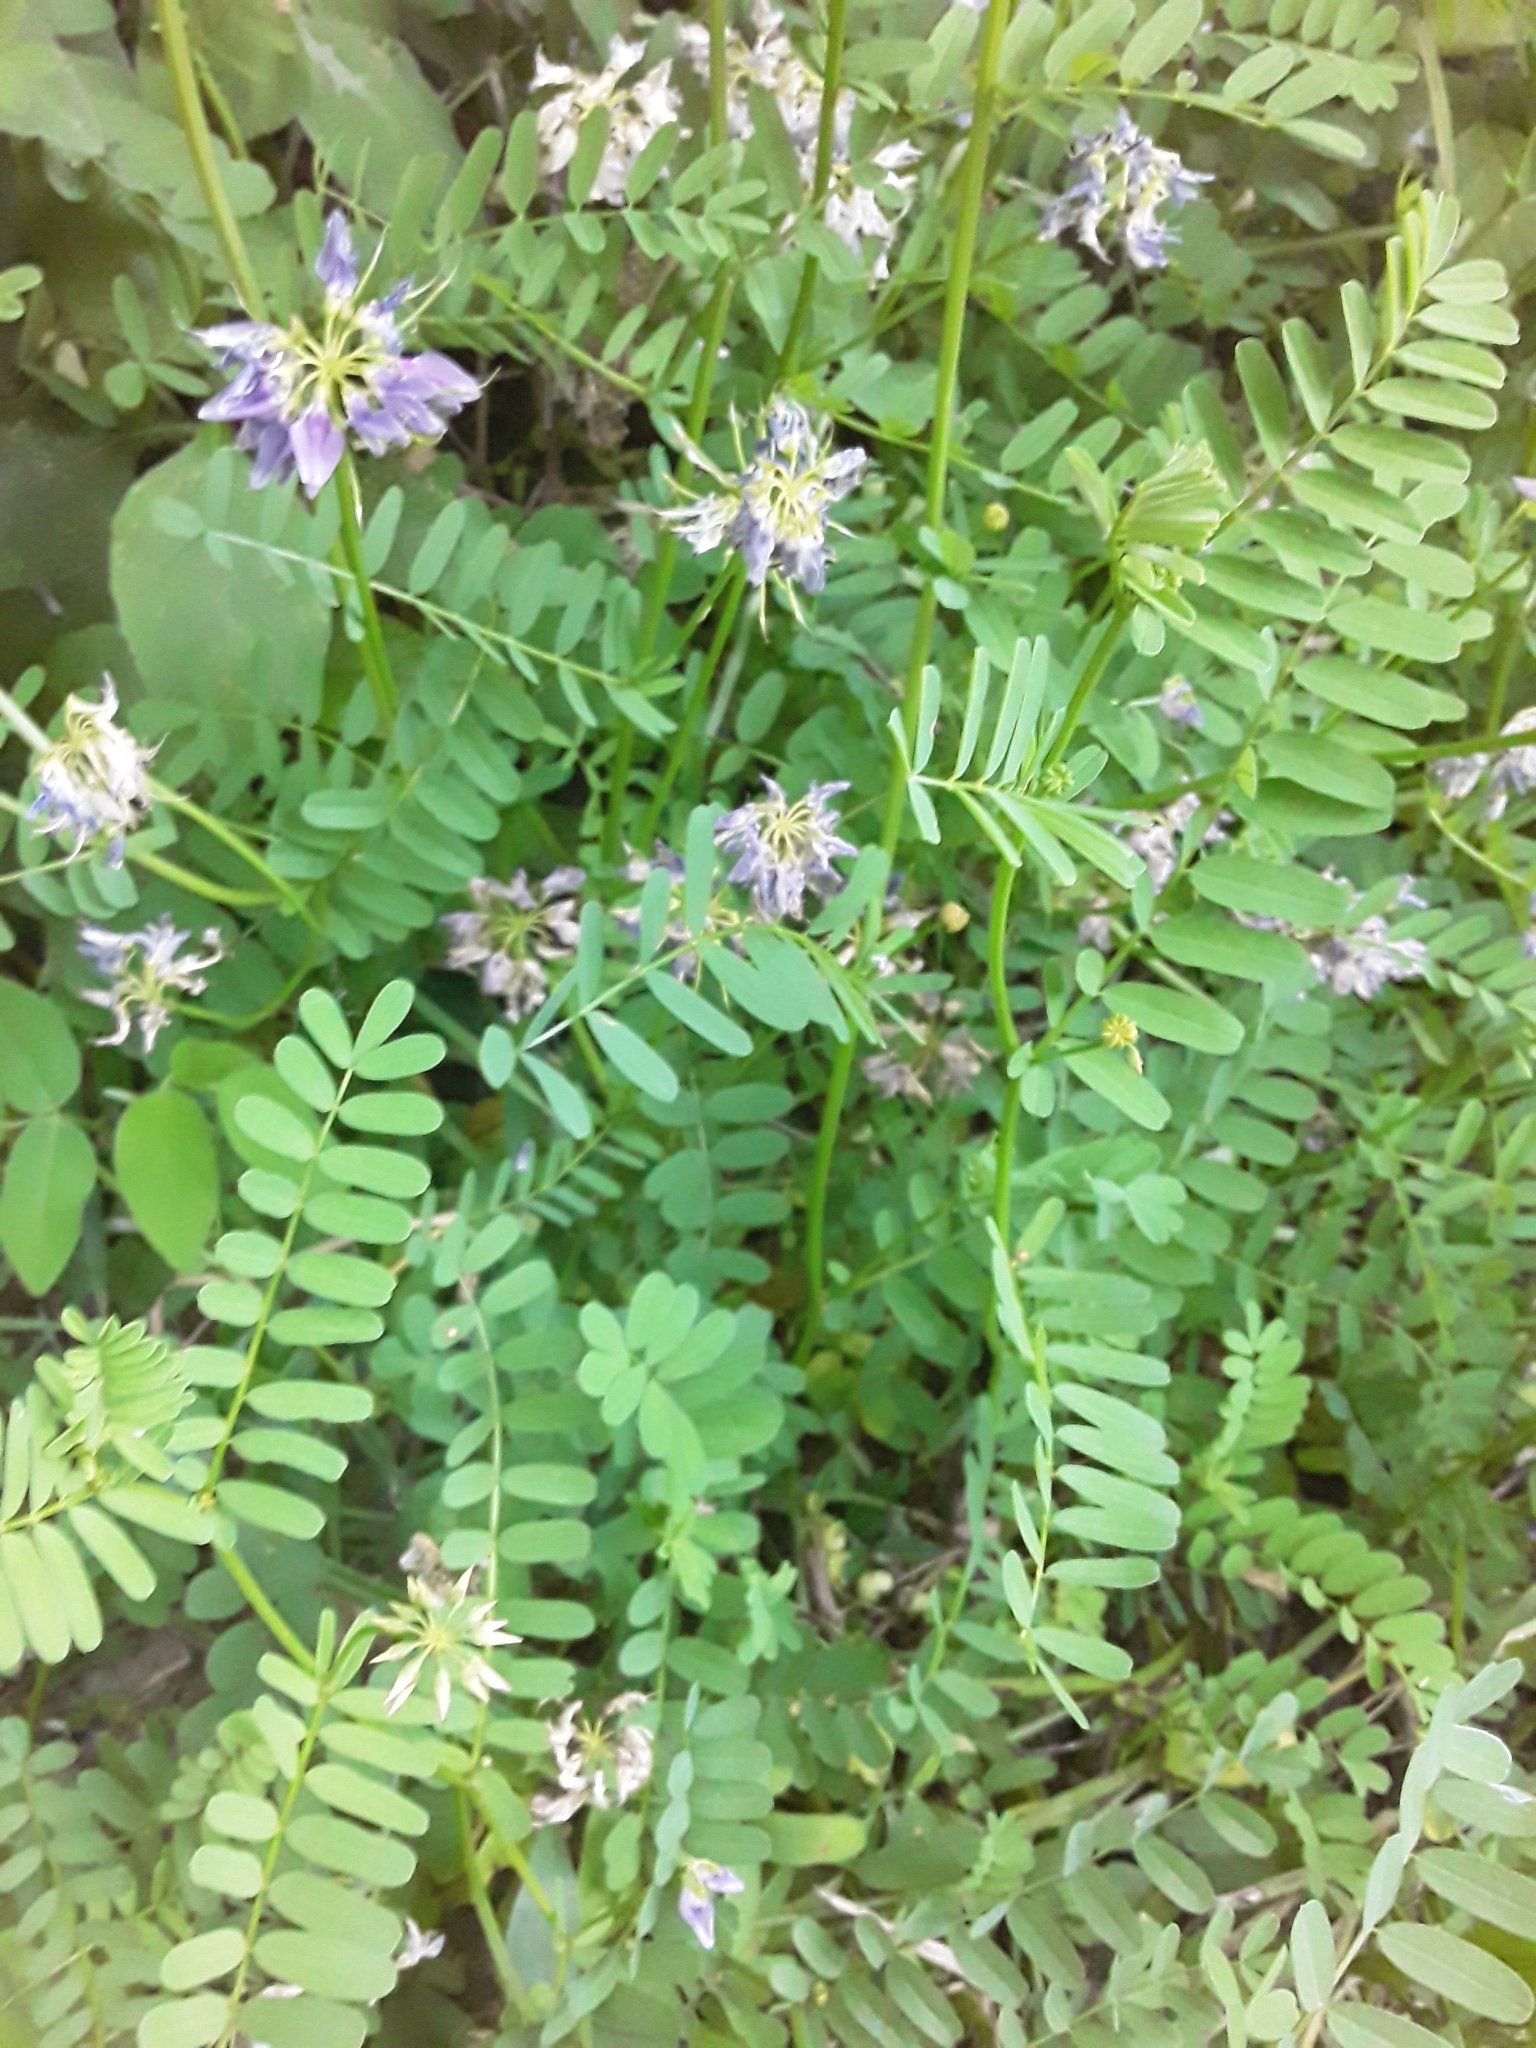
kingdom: Plantae
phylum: Tracheophyta
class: Magnoliopsida
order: Fabales
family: Fabaceae
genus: Coronilla
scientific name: Coronilla varia
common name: Crownvetch
